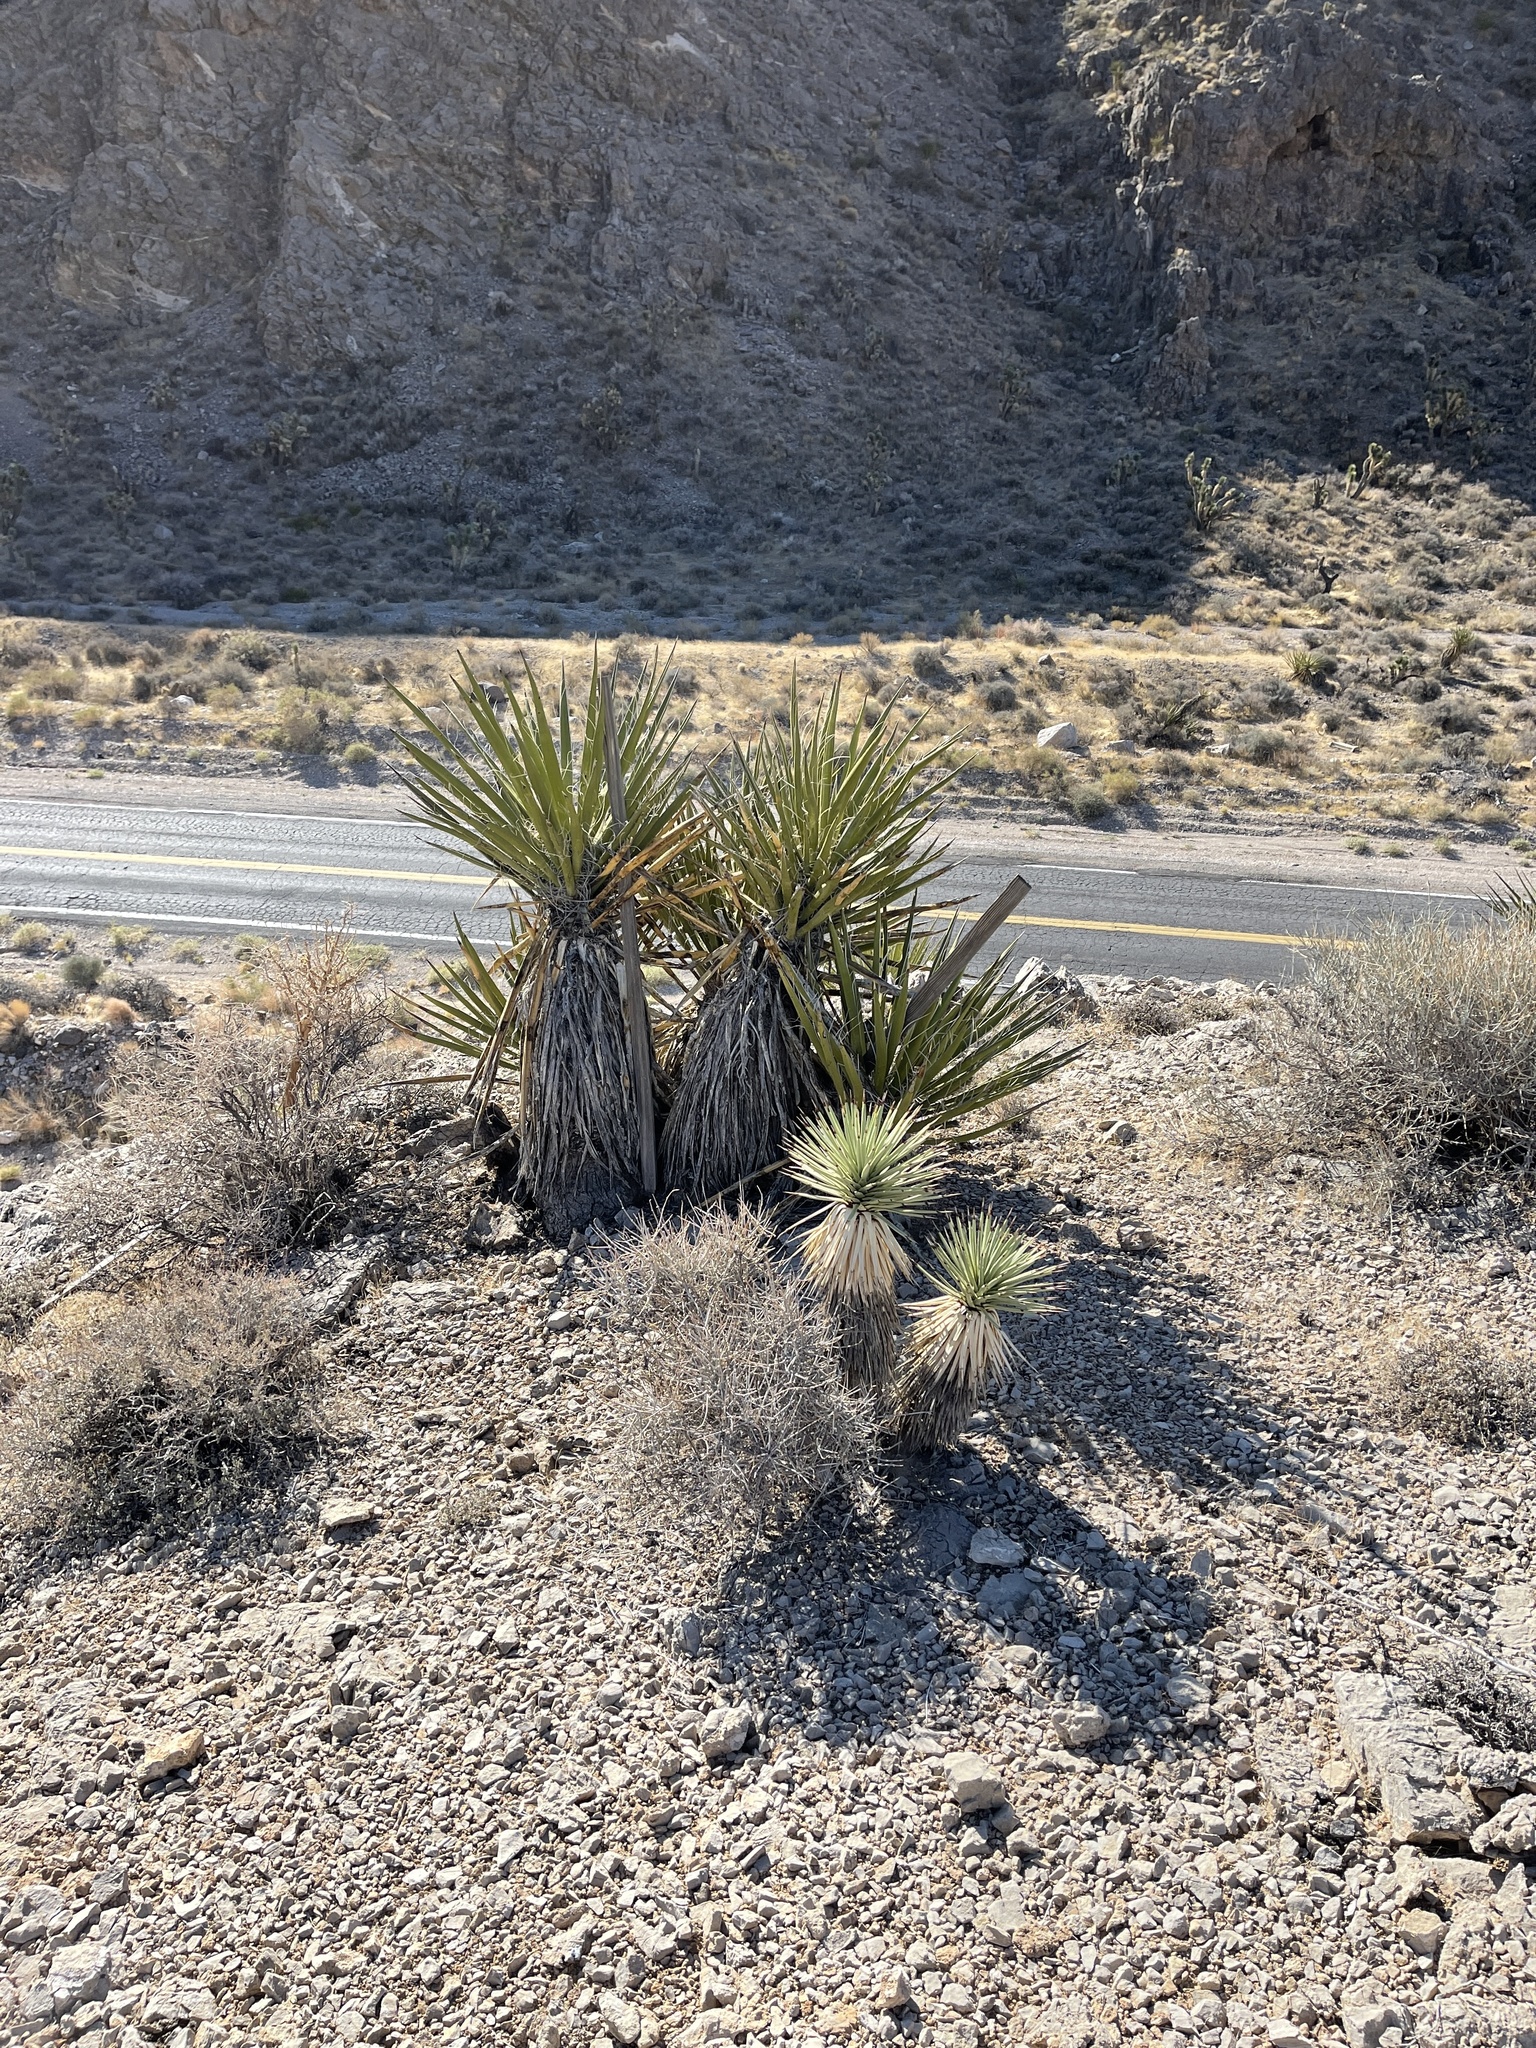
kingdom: Plantae
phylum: Tracheophyta
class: Liliopsida
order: Asparagales
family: Asparagaceae
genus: Yucca
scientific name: Yucca brevifolia
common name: Joshua tree
